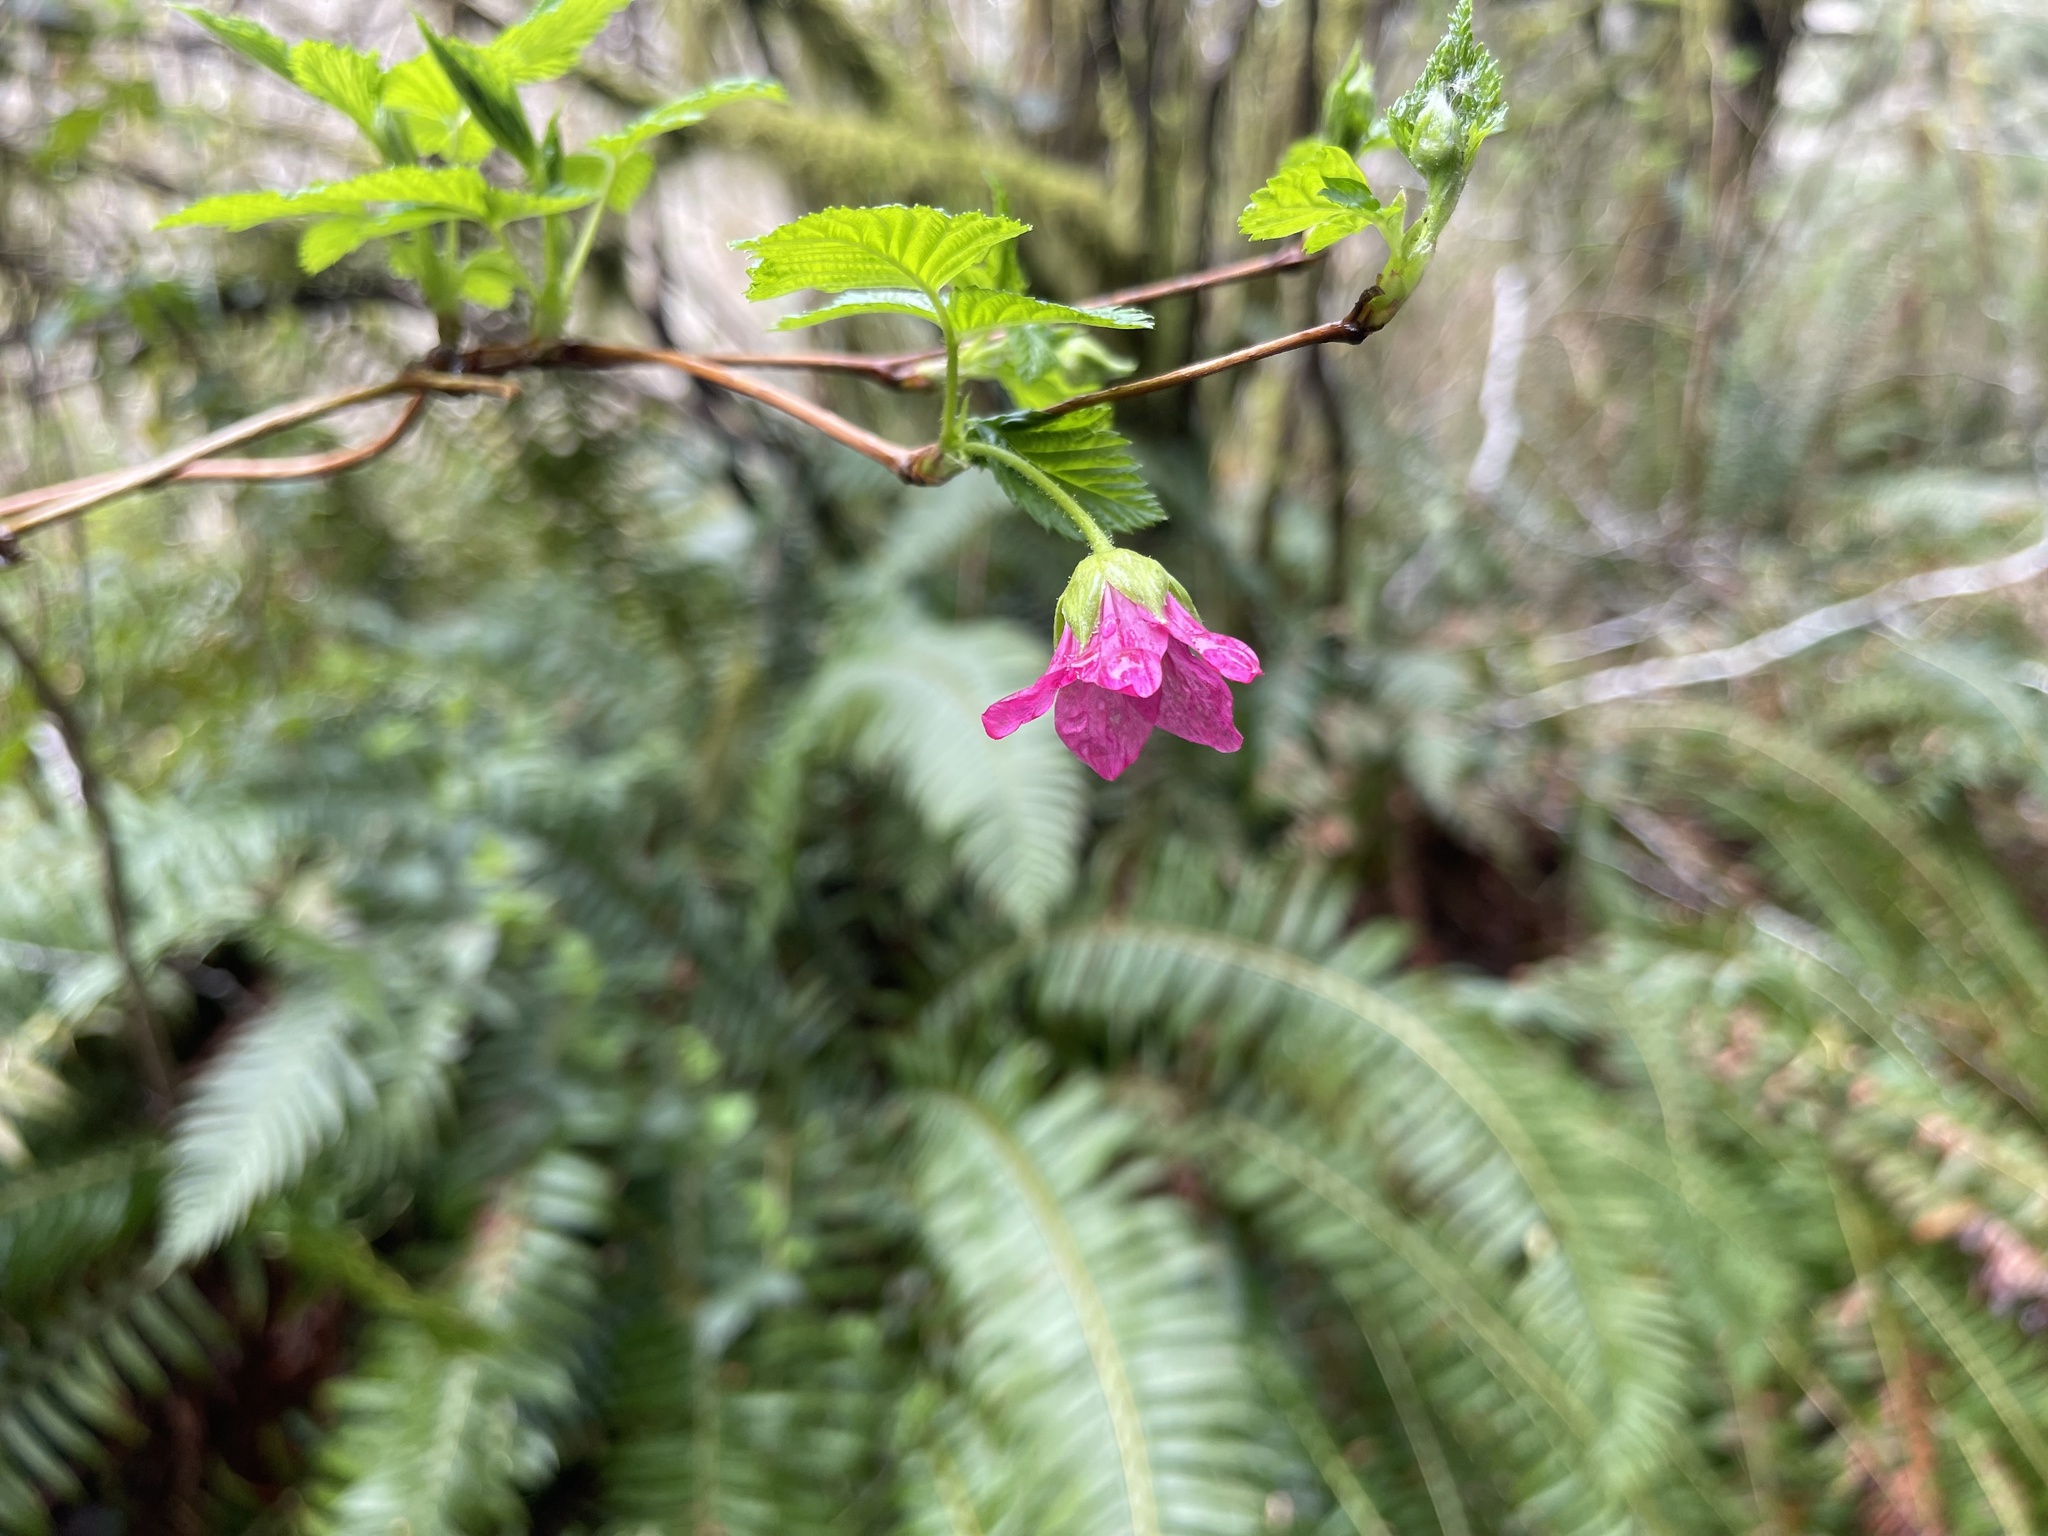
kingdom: Plantae
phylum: Tracheophyta
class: Magnoliopsida
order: Rosales
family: Rosaceae
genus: Rubus
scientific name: Rubus spectabilis
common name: Salmonberry
